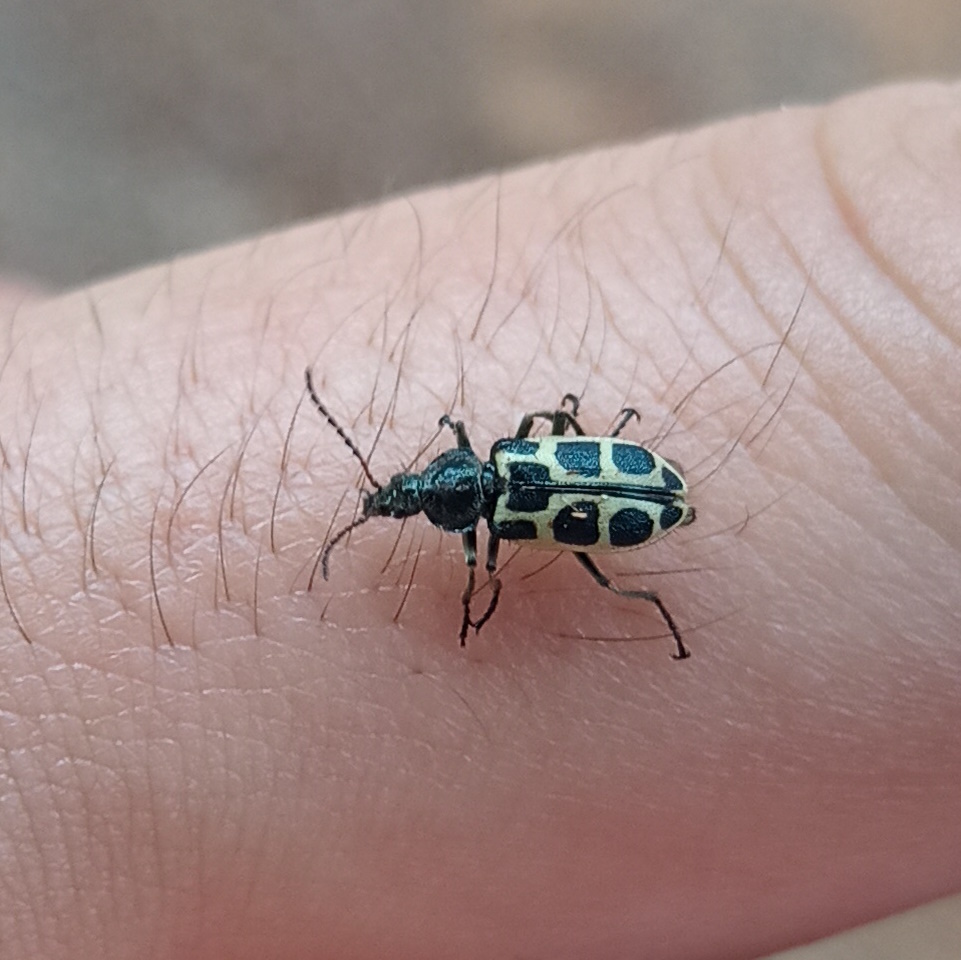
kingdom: Animalia
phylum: Arthropoda
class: Insecta
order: Coleoptera
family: Melyridae
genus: Astylus
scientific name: Astylus
